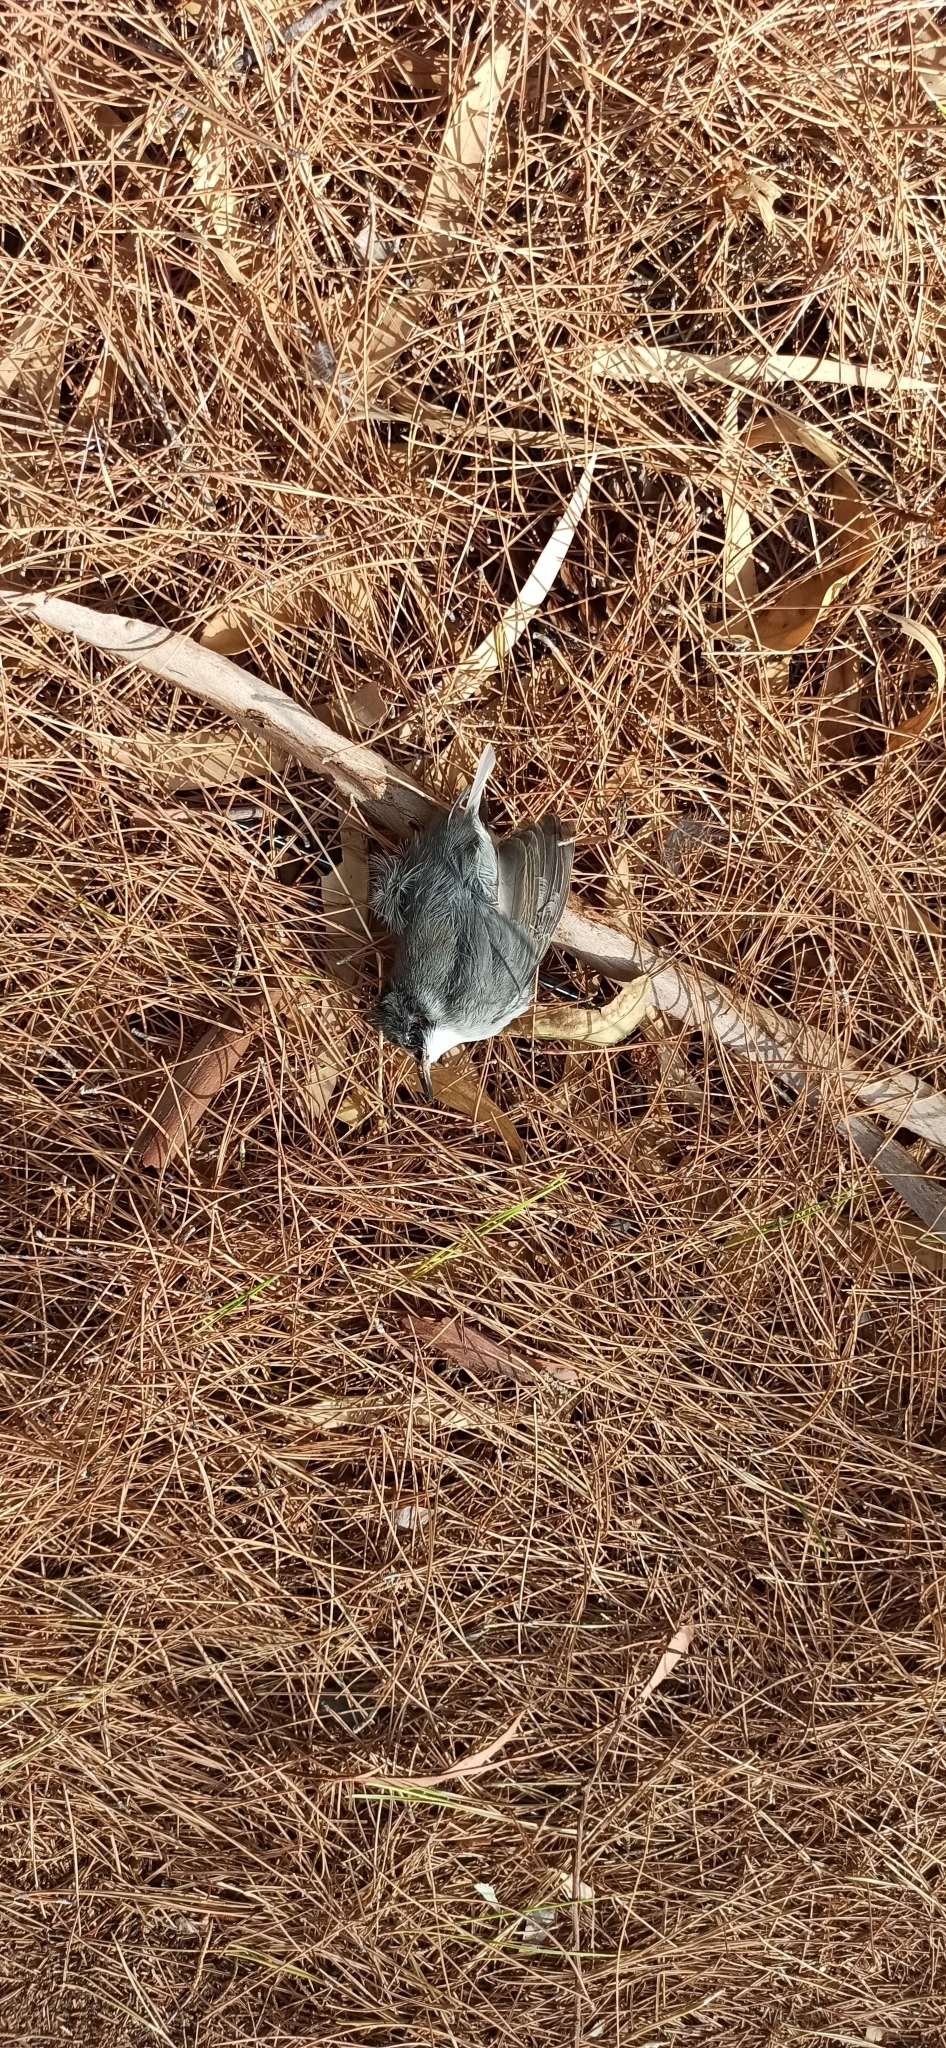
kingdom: Animalia
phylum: Chordata
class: Aves
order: Passeriformes
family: Sylviidae
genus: Curruca
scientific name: Curruca melanocephala
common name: Sardinian warbler
